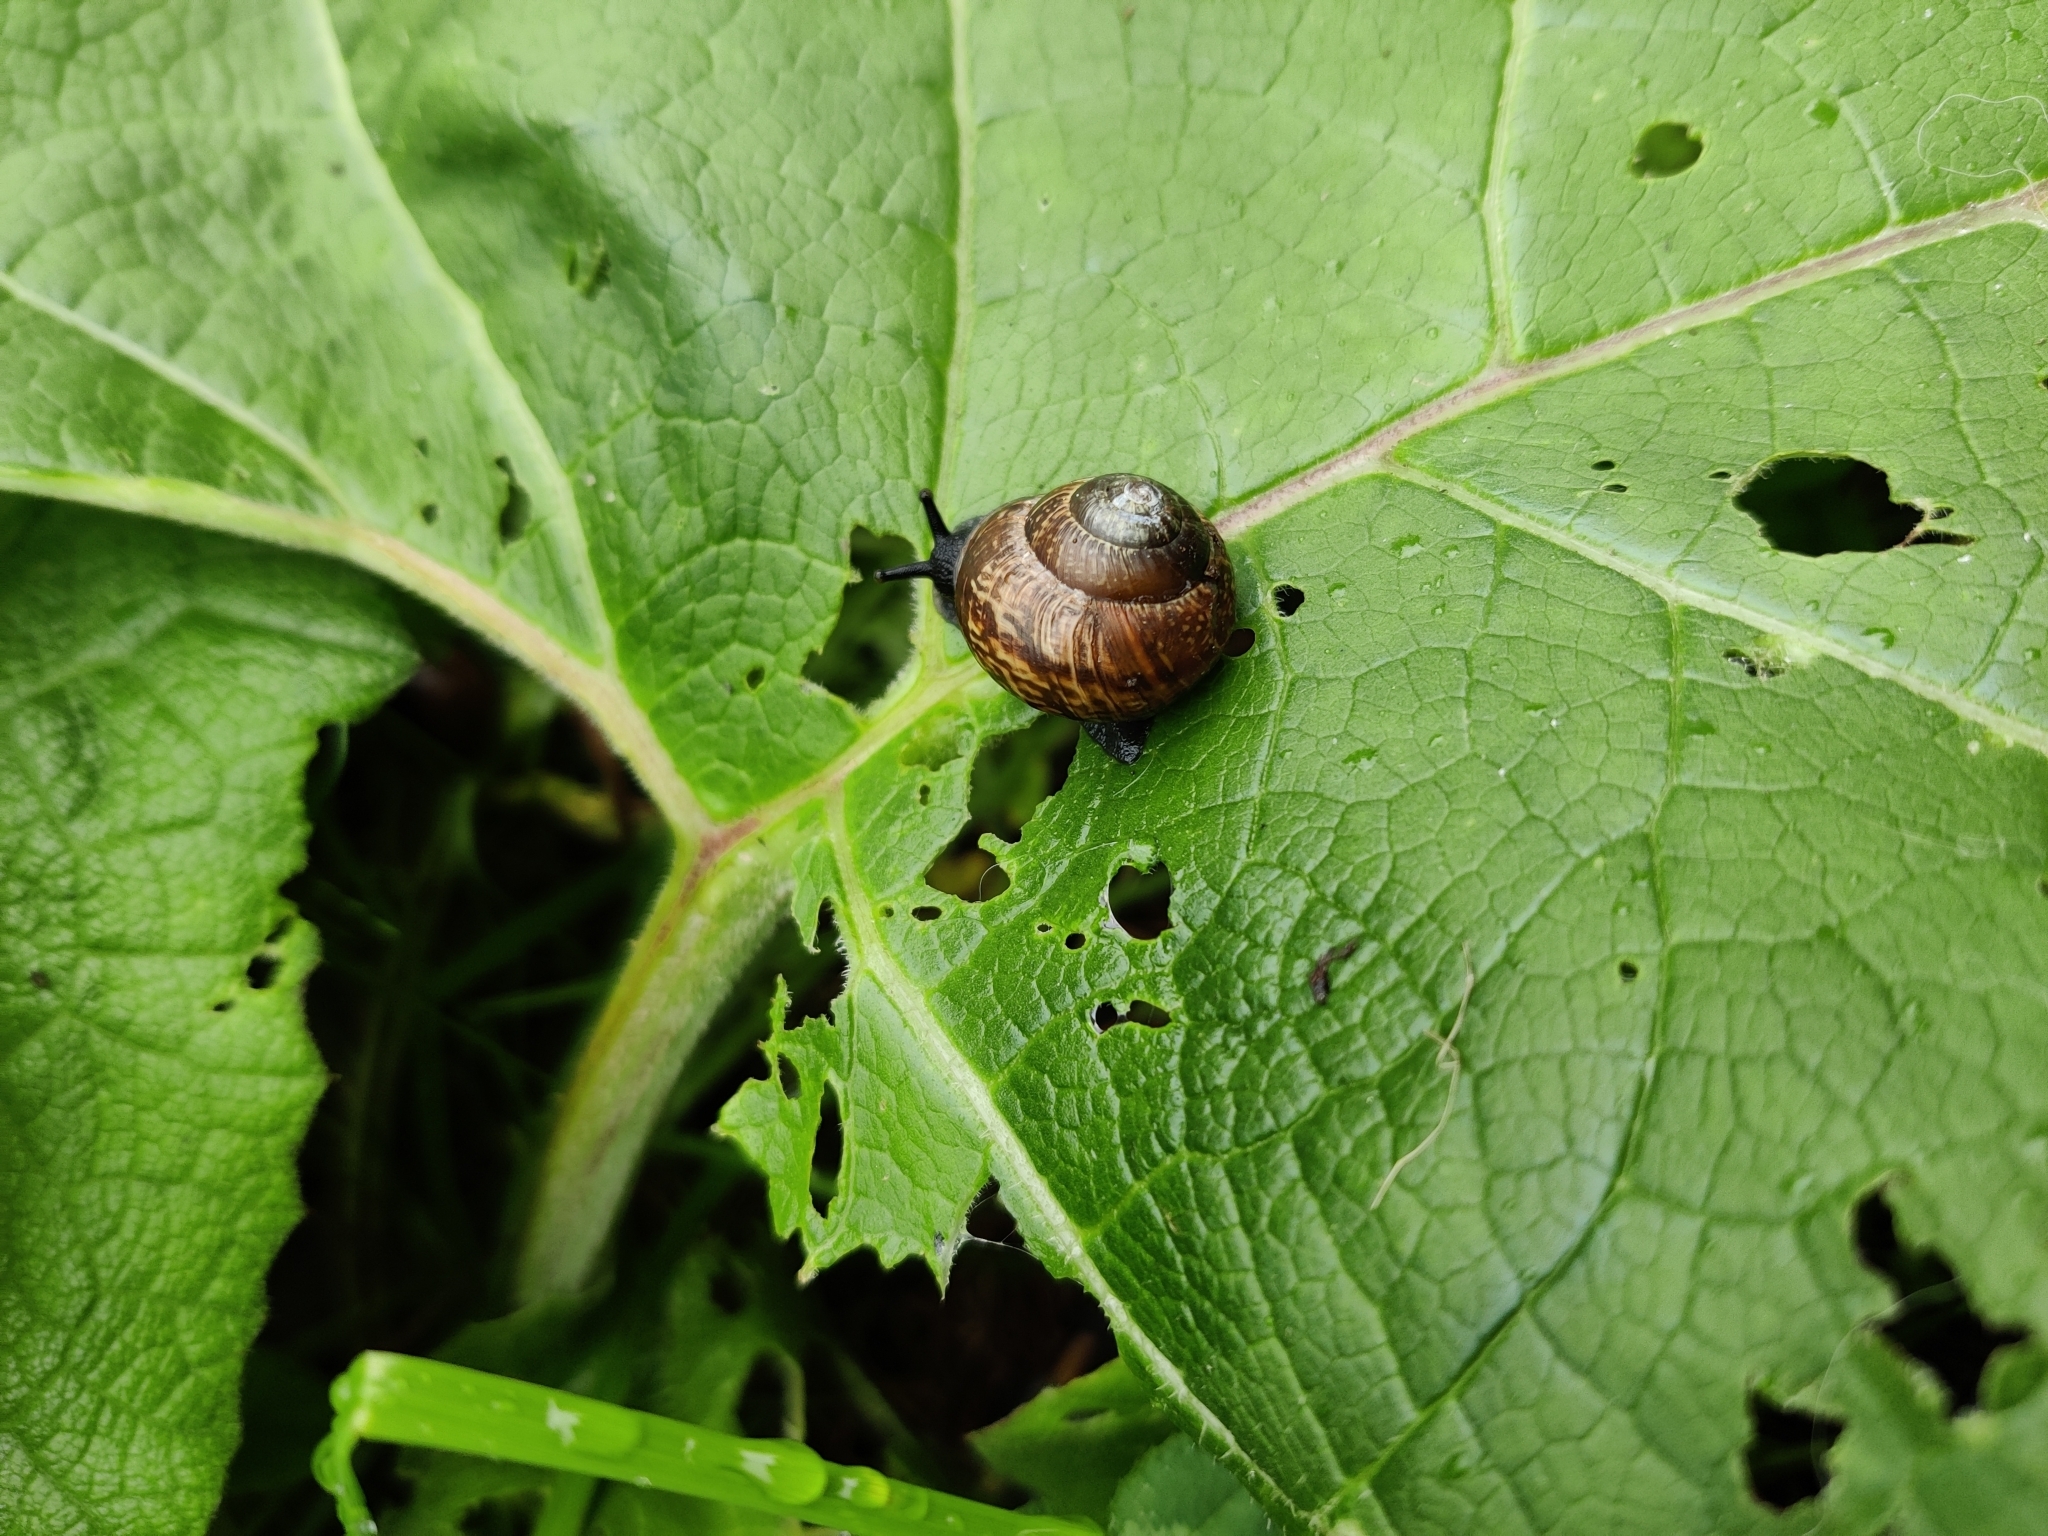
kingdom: Animalia
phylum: Mollusca
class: Gastropoda
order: Stylommatophora
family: Helicidae
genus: Arianta
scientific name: Arianta arbustorum
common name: Copse snail
